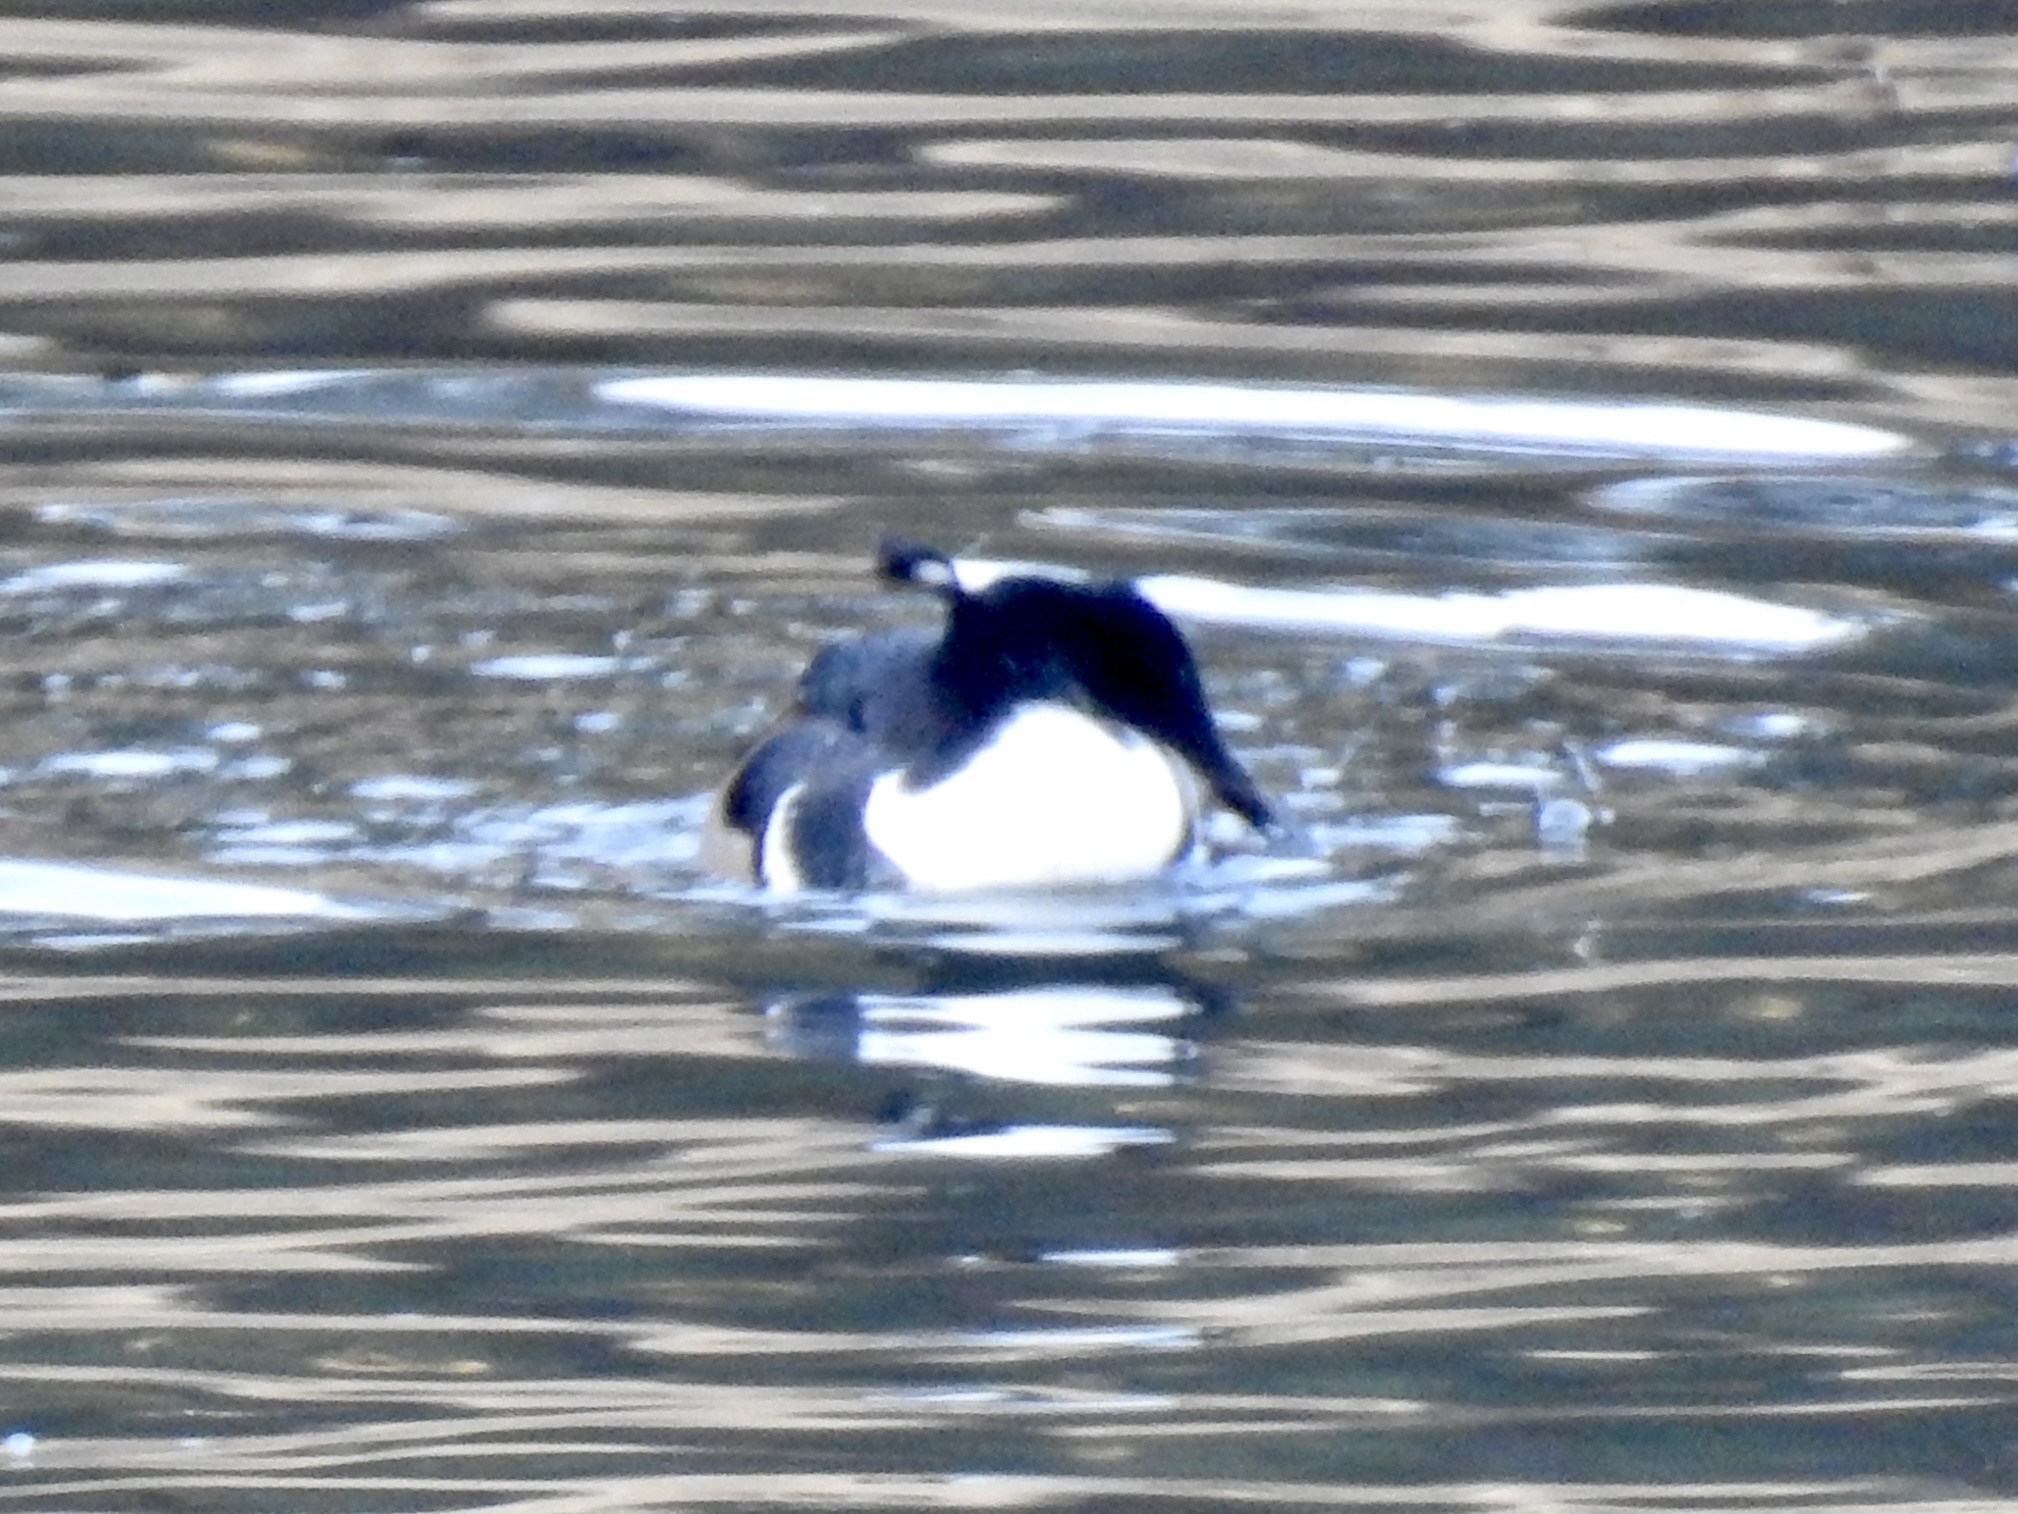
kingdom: Animalia
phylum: Chordata
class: Aves
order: Anseriformes
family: Anatidae
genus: Lophodytes
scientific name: Lophodytes cucullatus
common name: Hooded merganser
